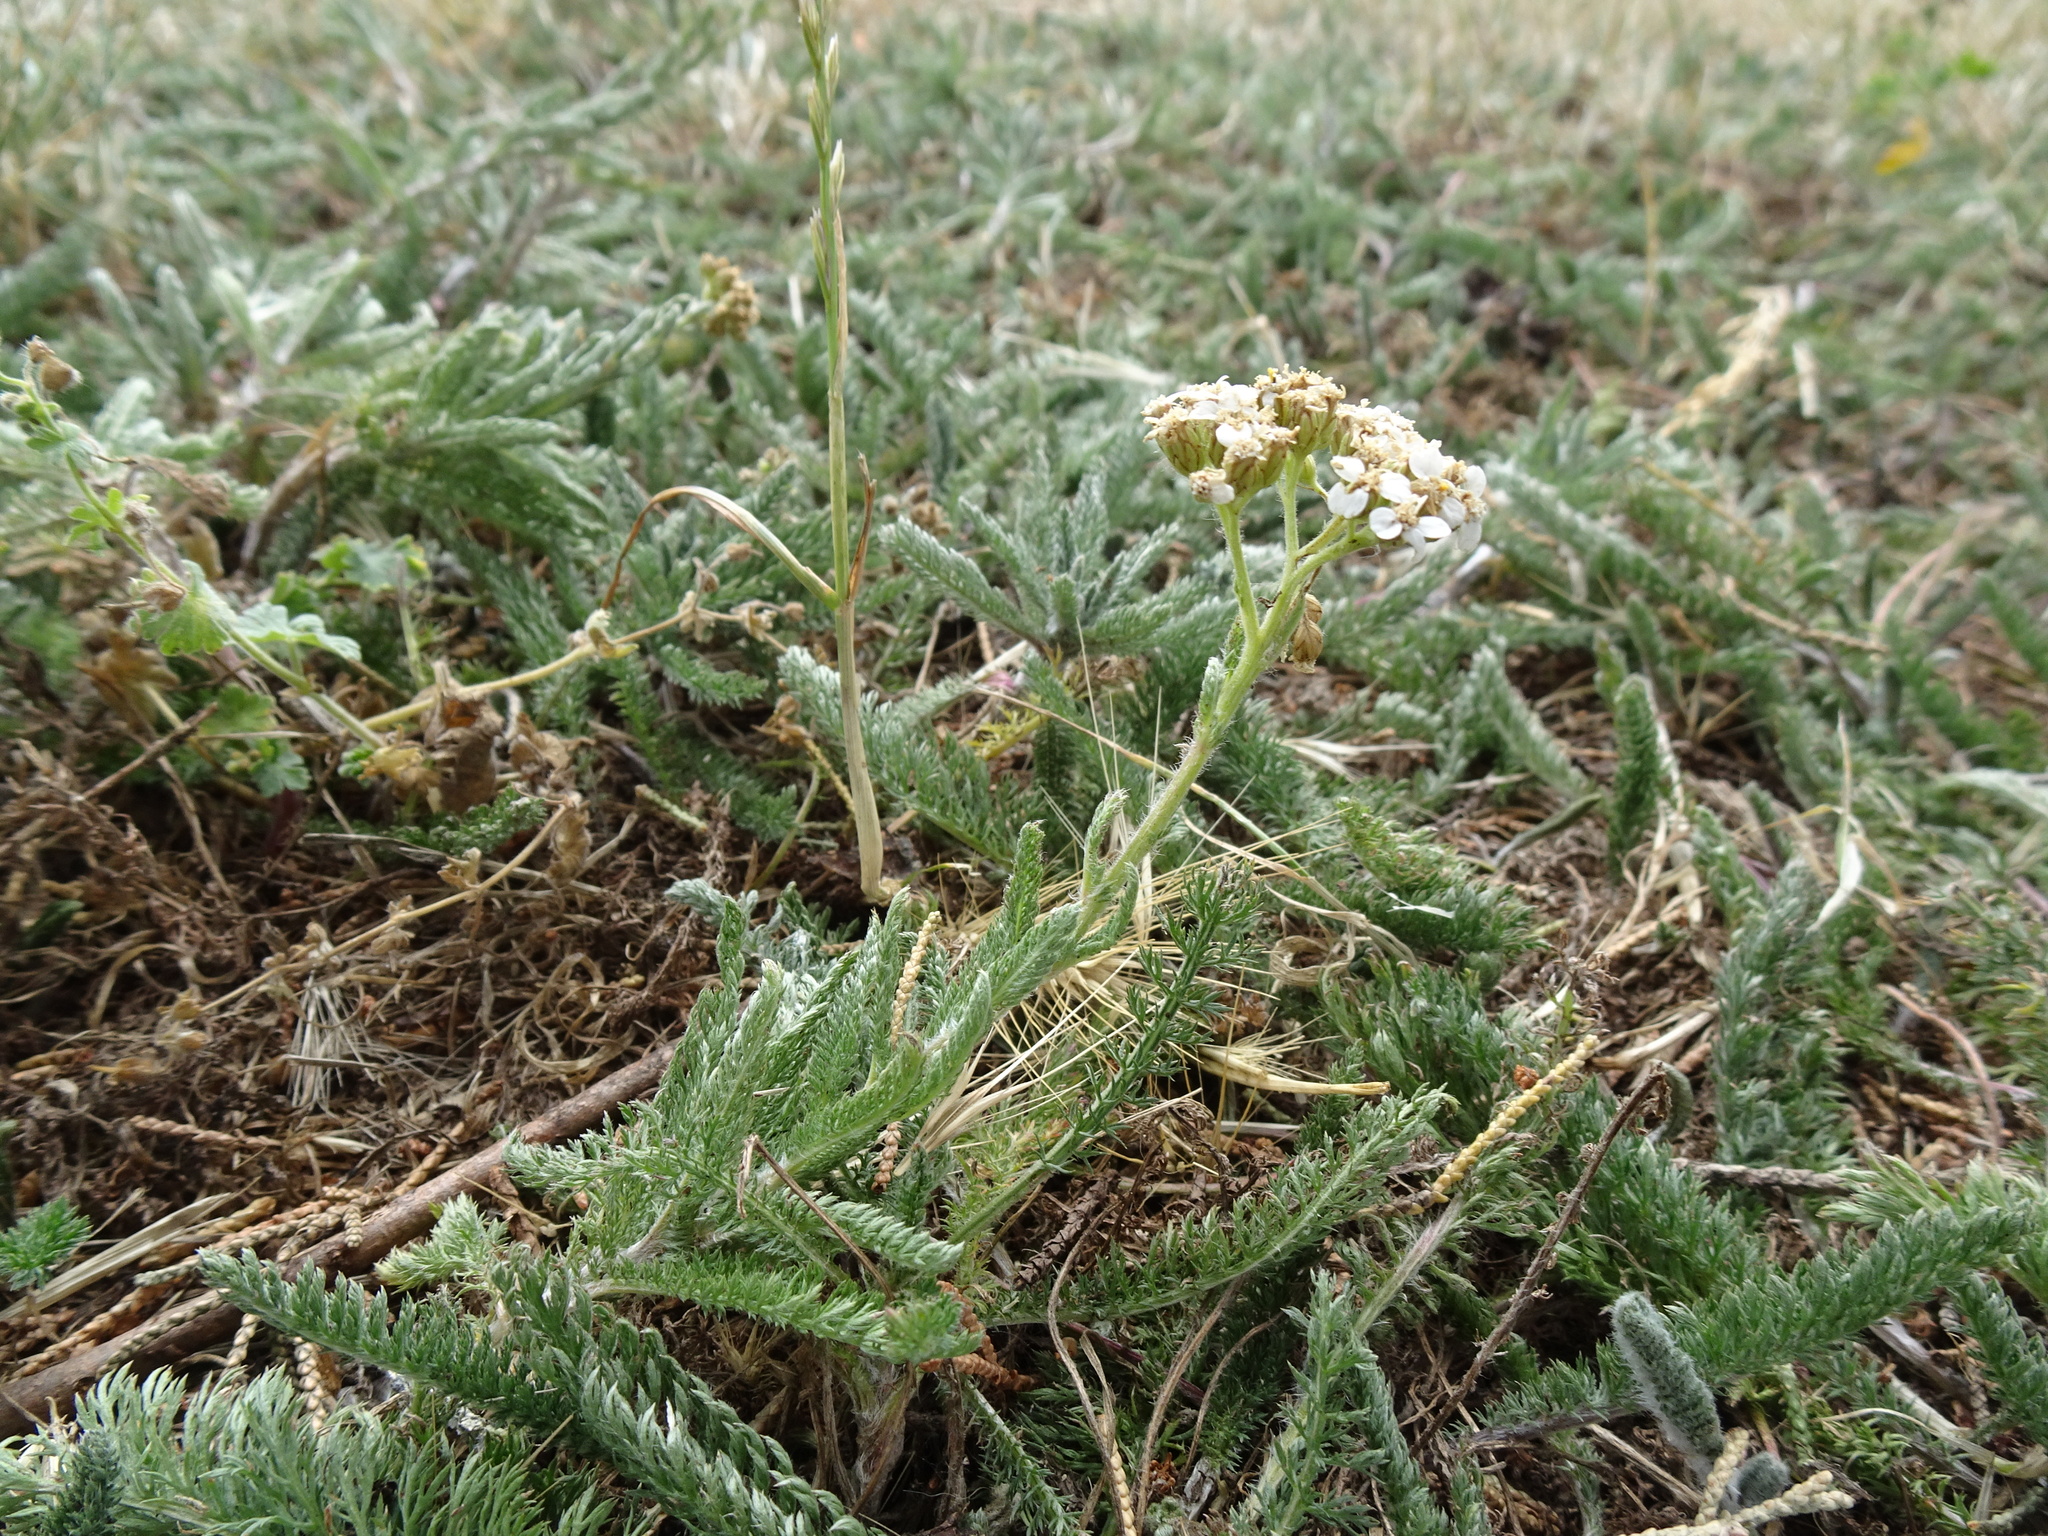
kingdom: Plantae
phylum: Tracheophyta
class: Magnoliopsida
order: Asterales
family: Asteraceae
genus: Achillea
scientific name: Achillea millefolium
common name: Yarrow
